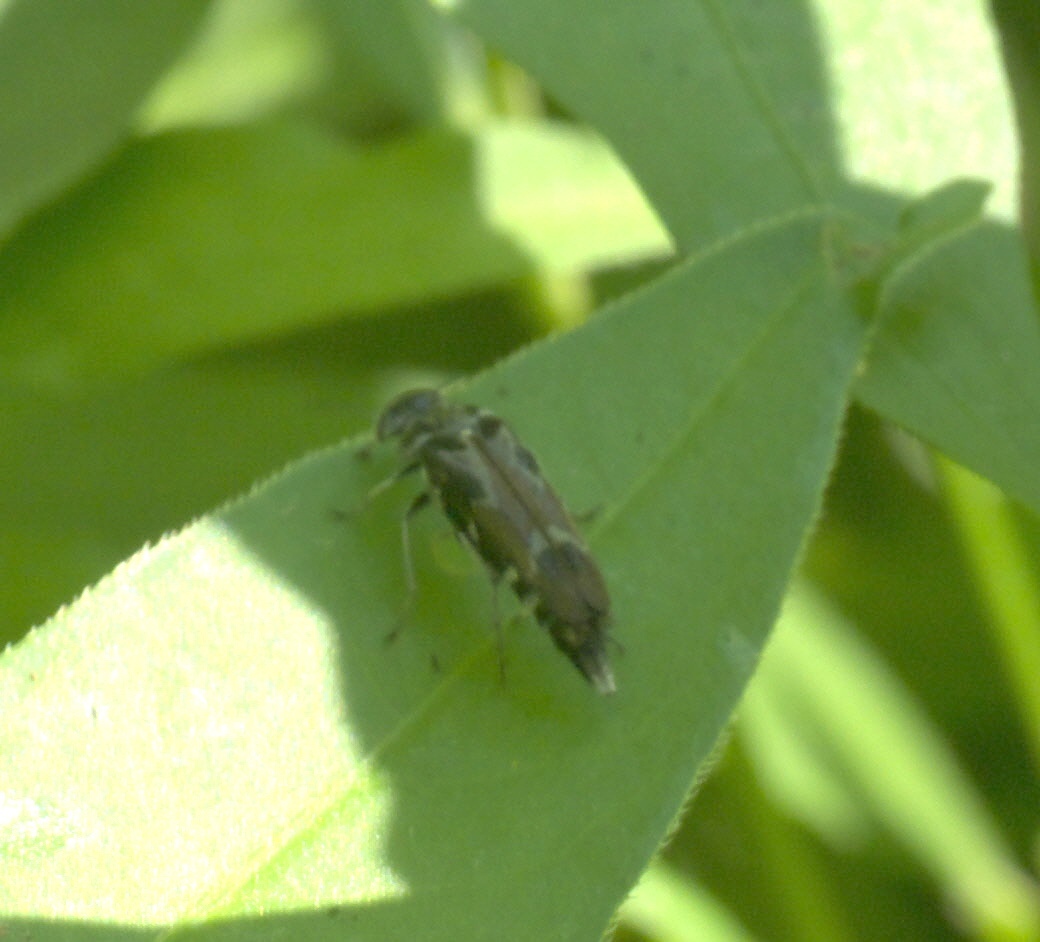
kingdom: Animalia
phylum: Arthropoda
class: Insecta
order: Coleoptera
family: Mordellidae
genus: Glipa
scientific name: Glipa hilaris
